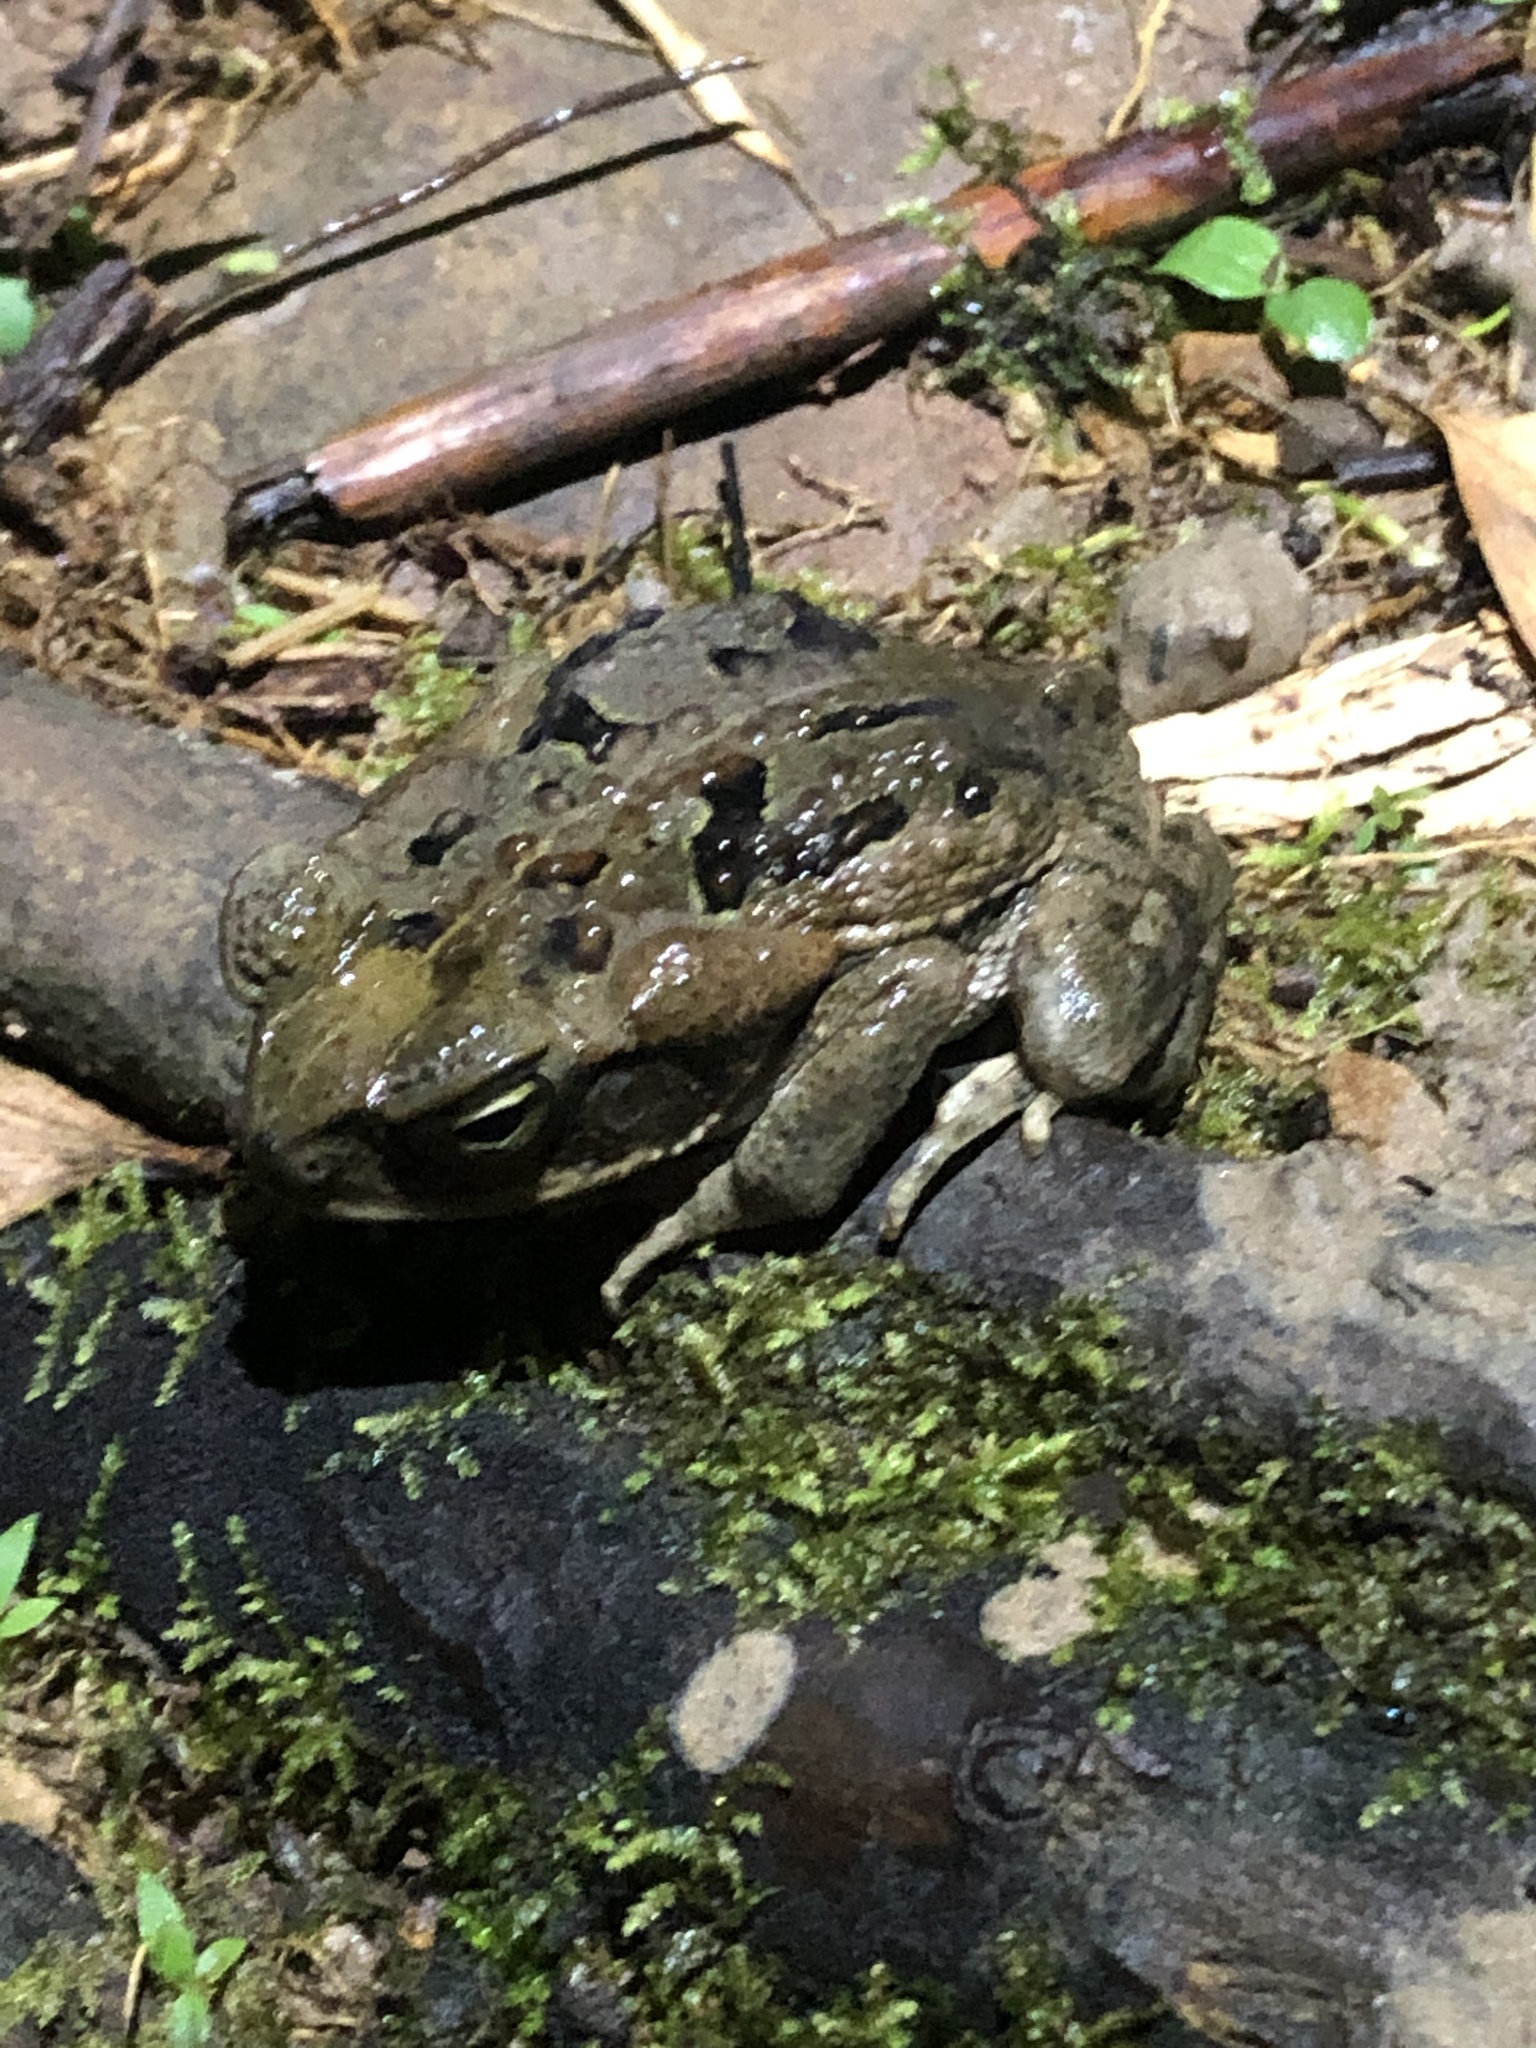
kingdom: Animalia
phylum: Chordata
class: Amphibia
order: Anura
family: Bufonidae
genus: Rhinella
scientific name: Rhinella marina
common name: Cane toad
